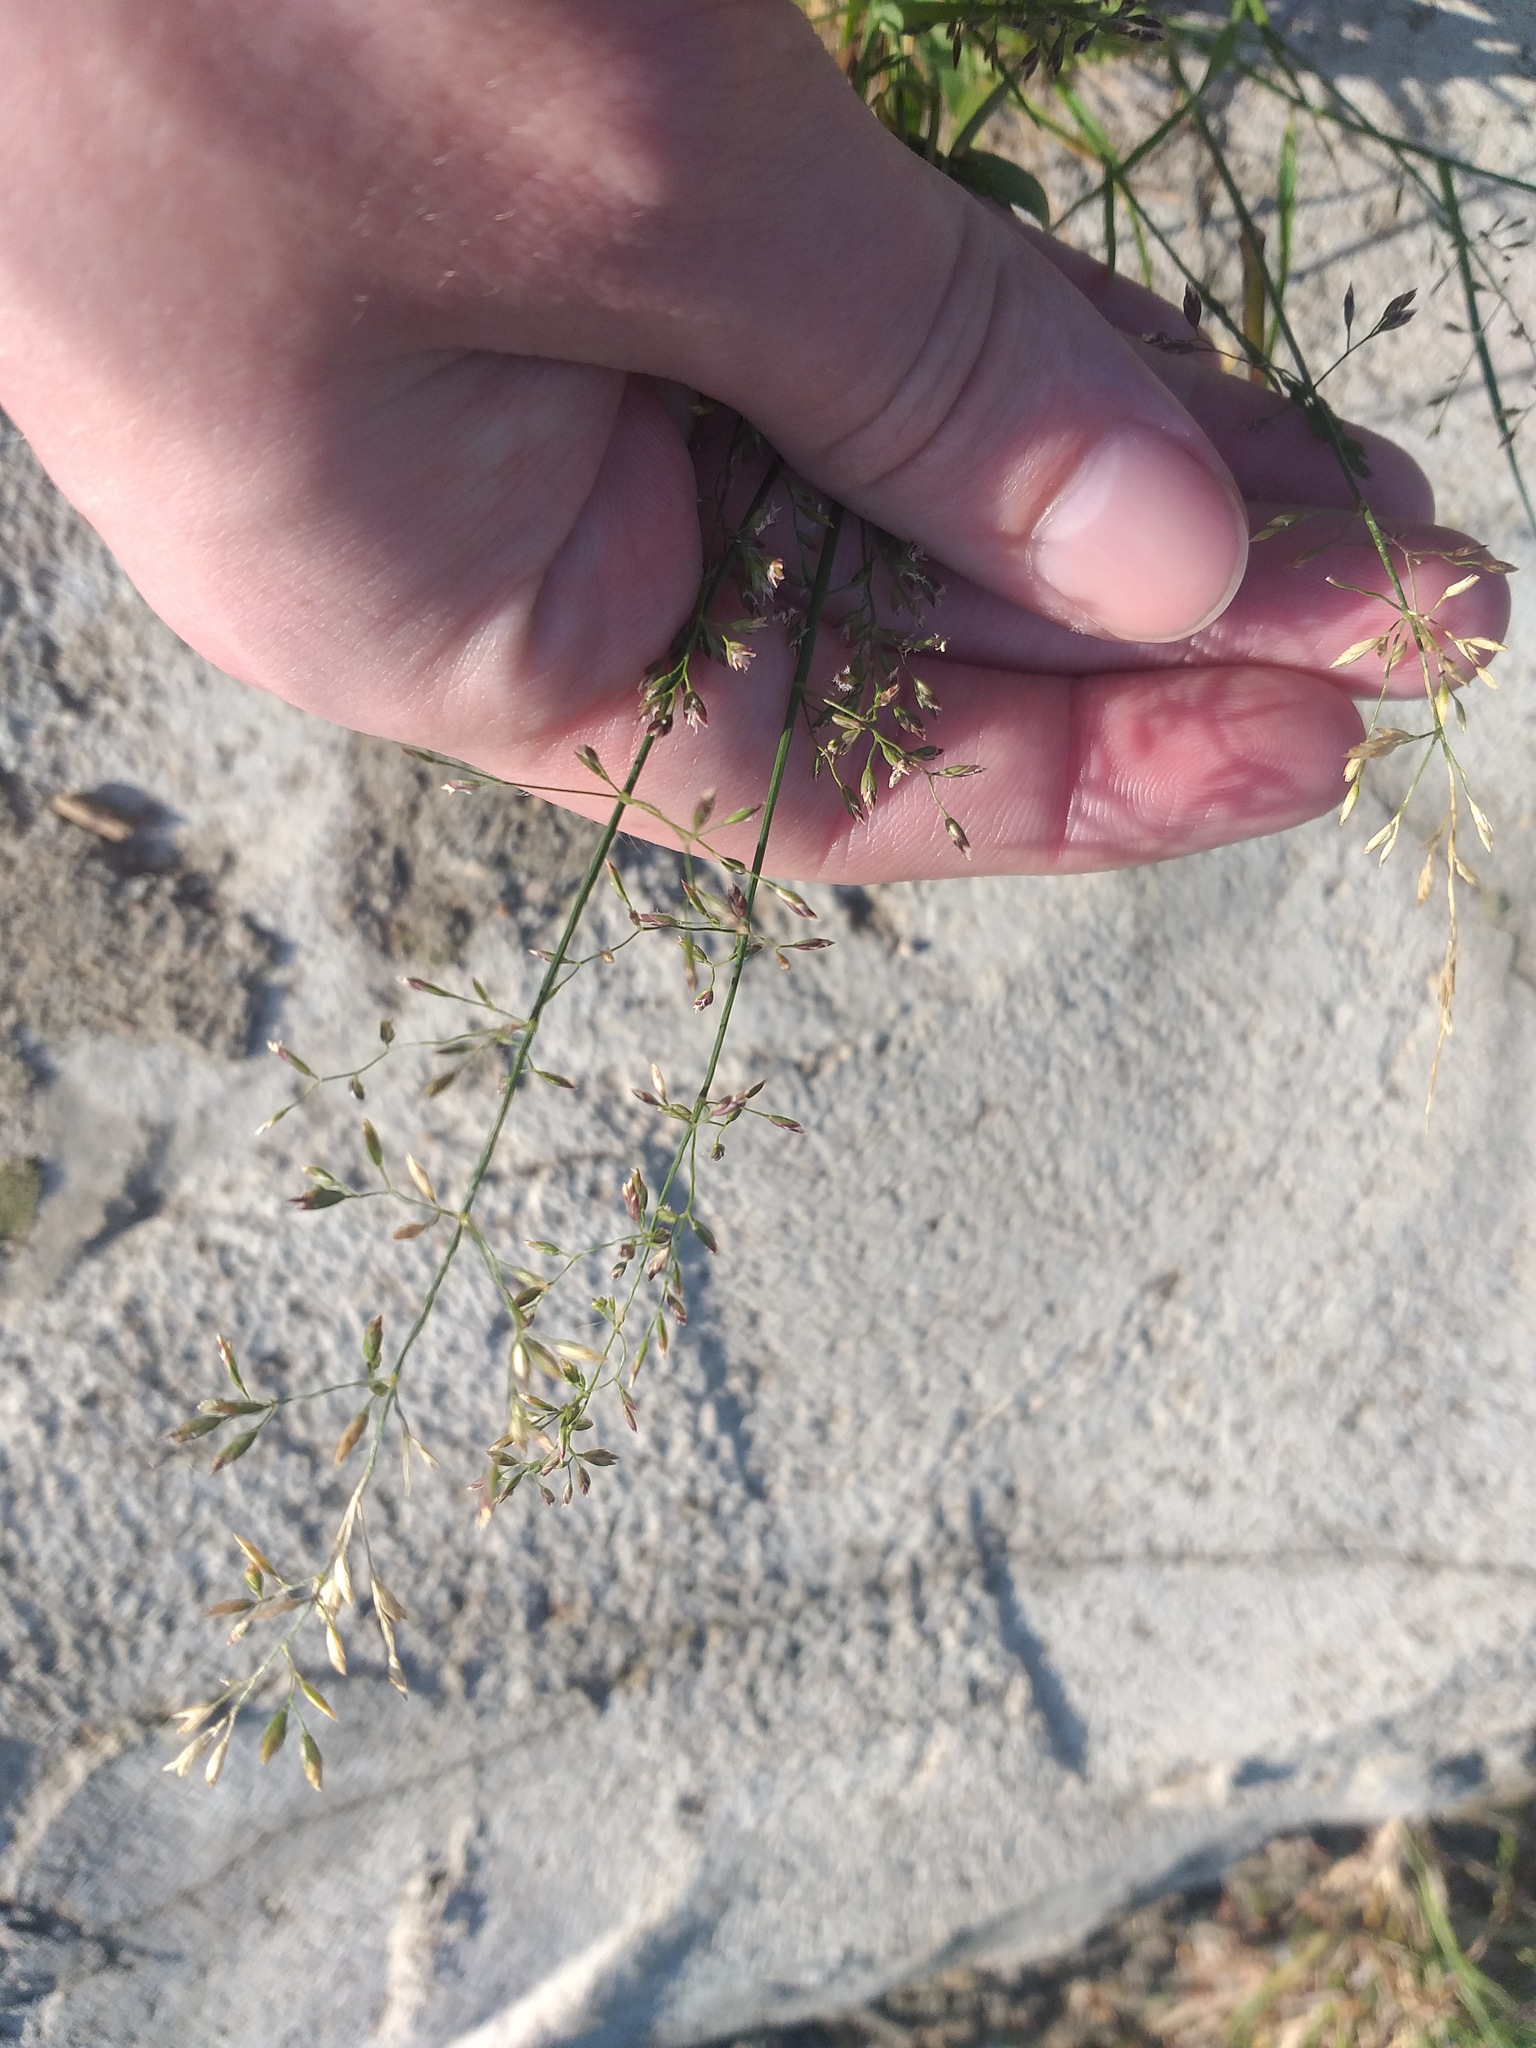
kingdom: Plantae
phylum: Tracheophyta
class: Liliopsida
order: Poales
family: Poaceae
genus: Poa
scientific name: Poa compressa
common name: Canada bluegrass
